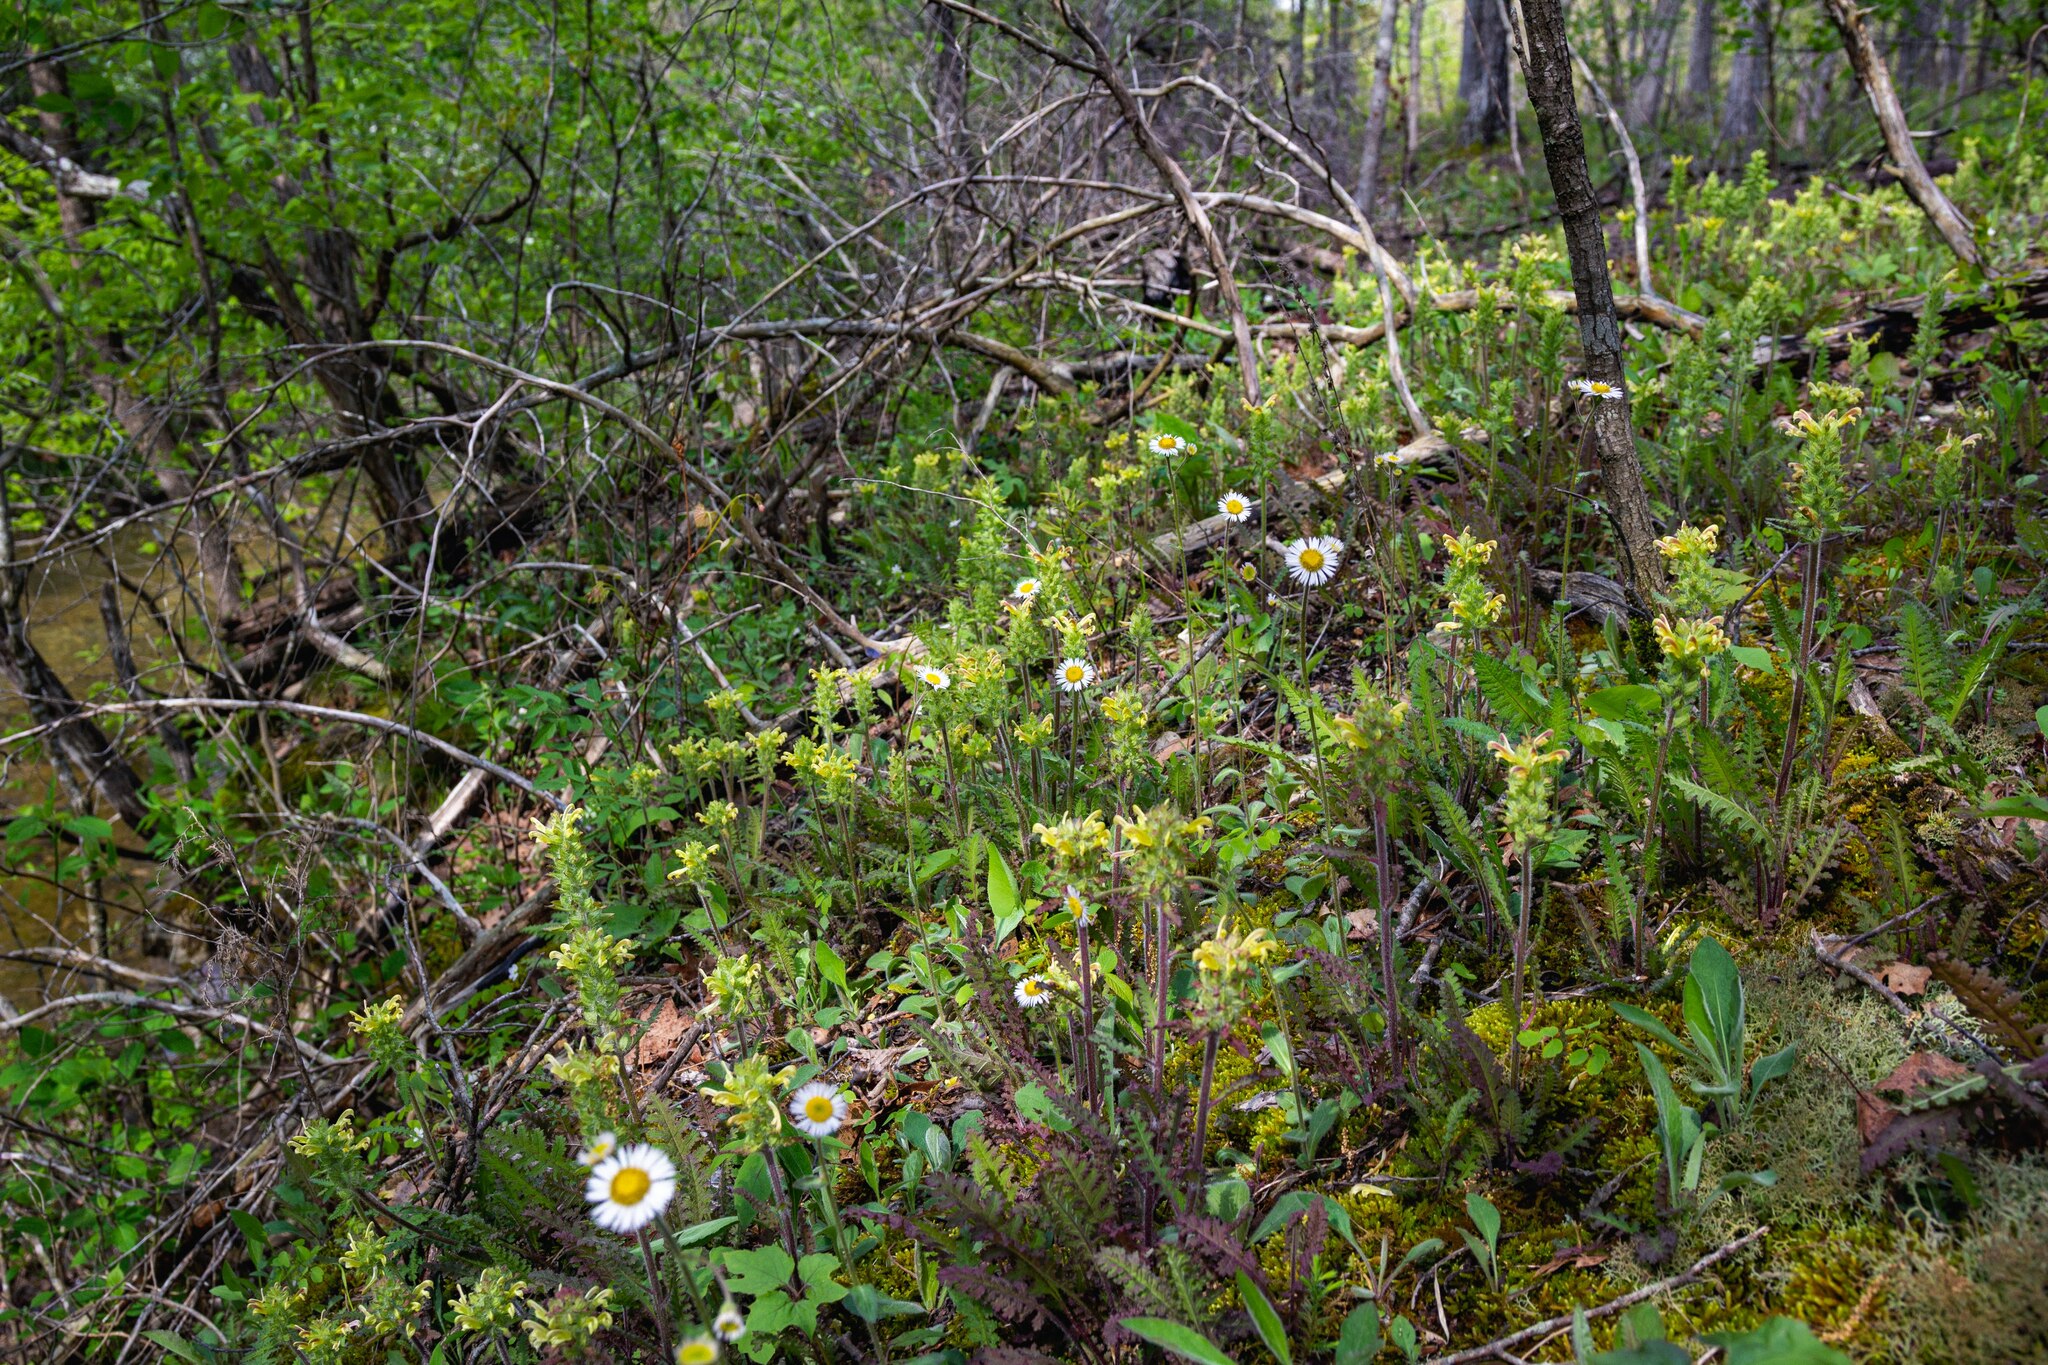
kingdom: Plantae
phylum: Tracheophyta
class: Magnoliopsida
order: Asterales
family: Asteraceae
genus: Erigeron
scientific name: Erigeron pulchellus
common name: Hairy fleabane
